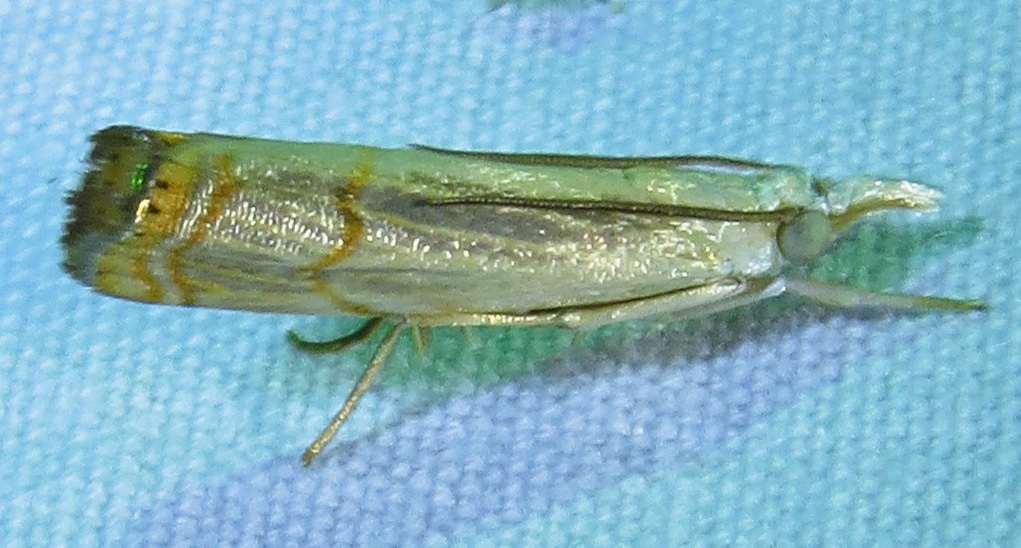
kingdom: Animalia
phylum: Arthropoda
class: Insecta
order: Lepidoptera
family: Crambidae
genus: Parapediasia
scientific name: Parapediasia decorellus
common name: Graceful grass-veneer
